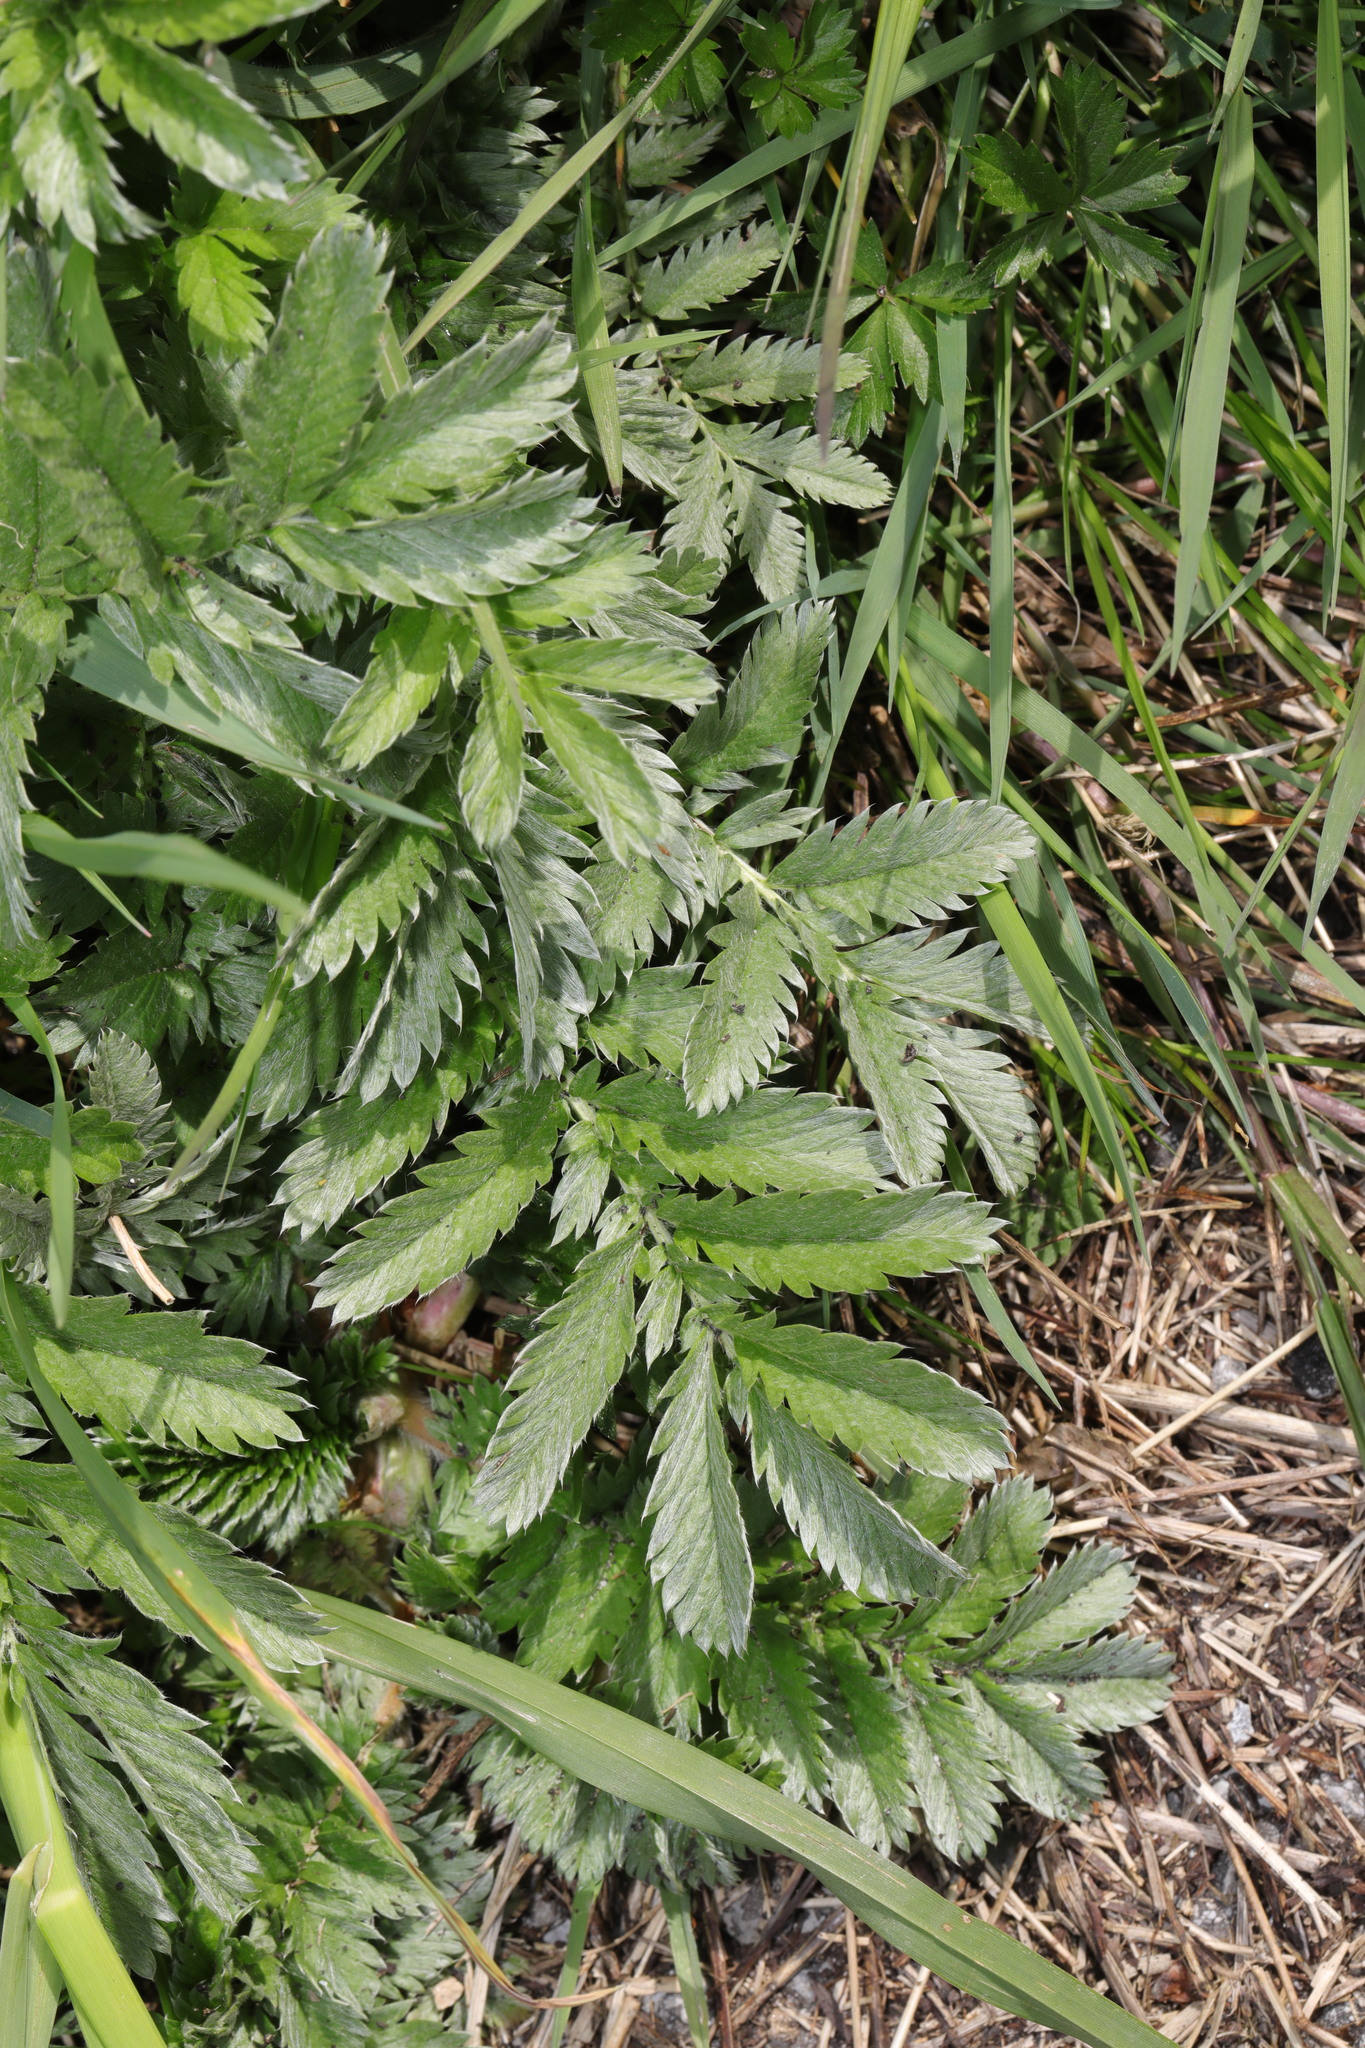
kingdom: Plantae
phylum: Tracheophyta
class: Magnoliopsida
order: Rosales
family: Rosaceae
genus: Argentina
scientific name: Argentina anserina
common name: Common silverweed
